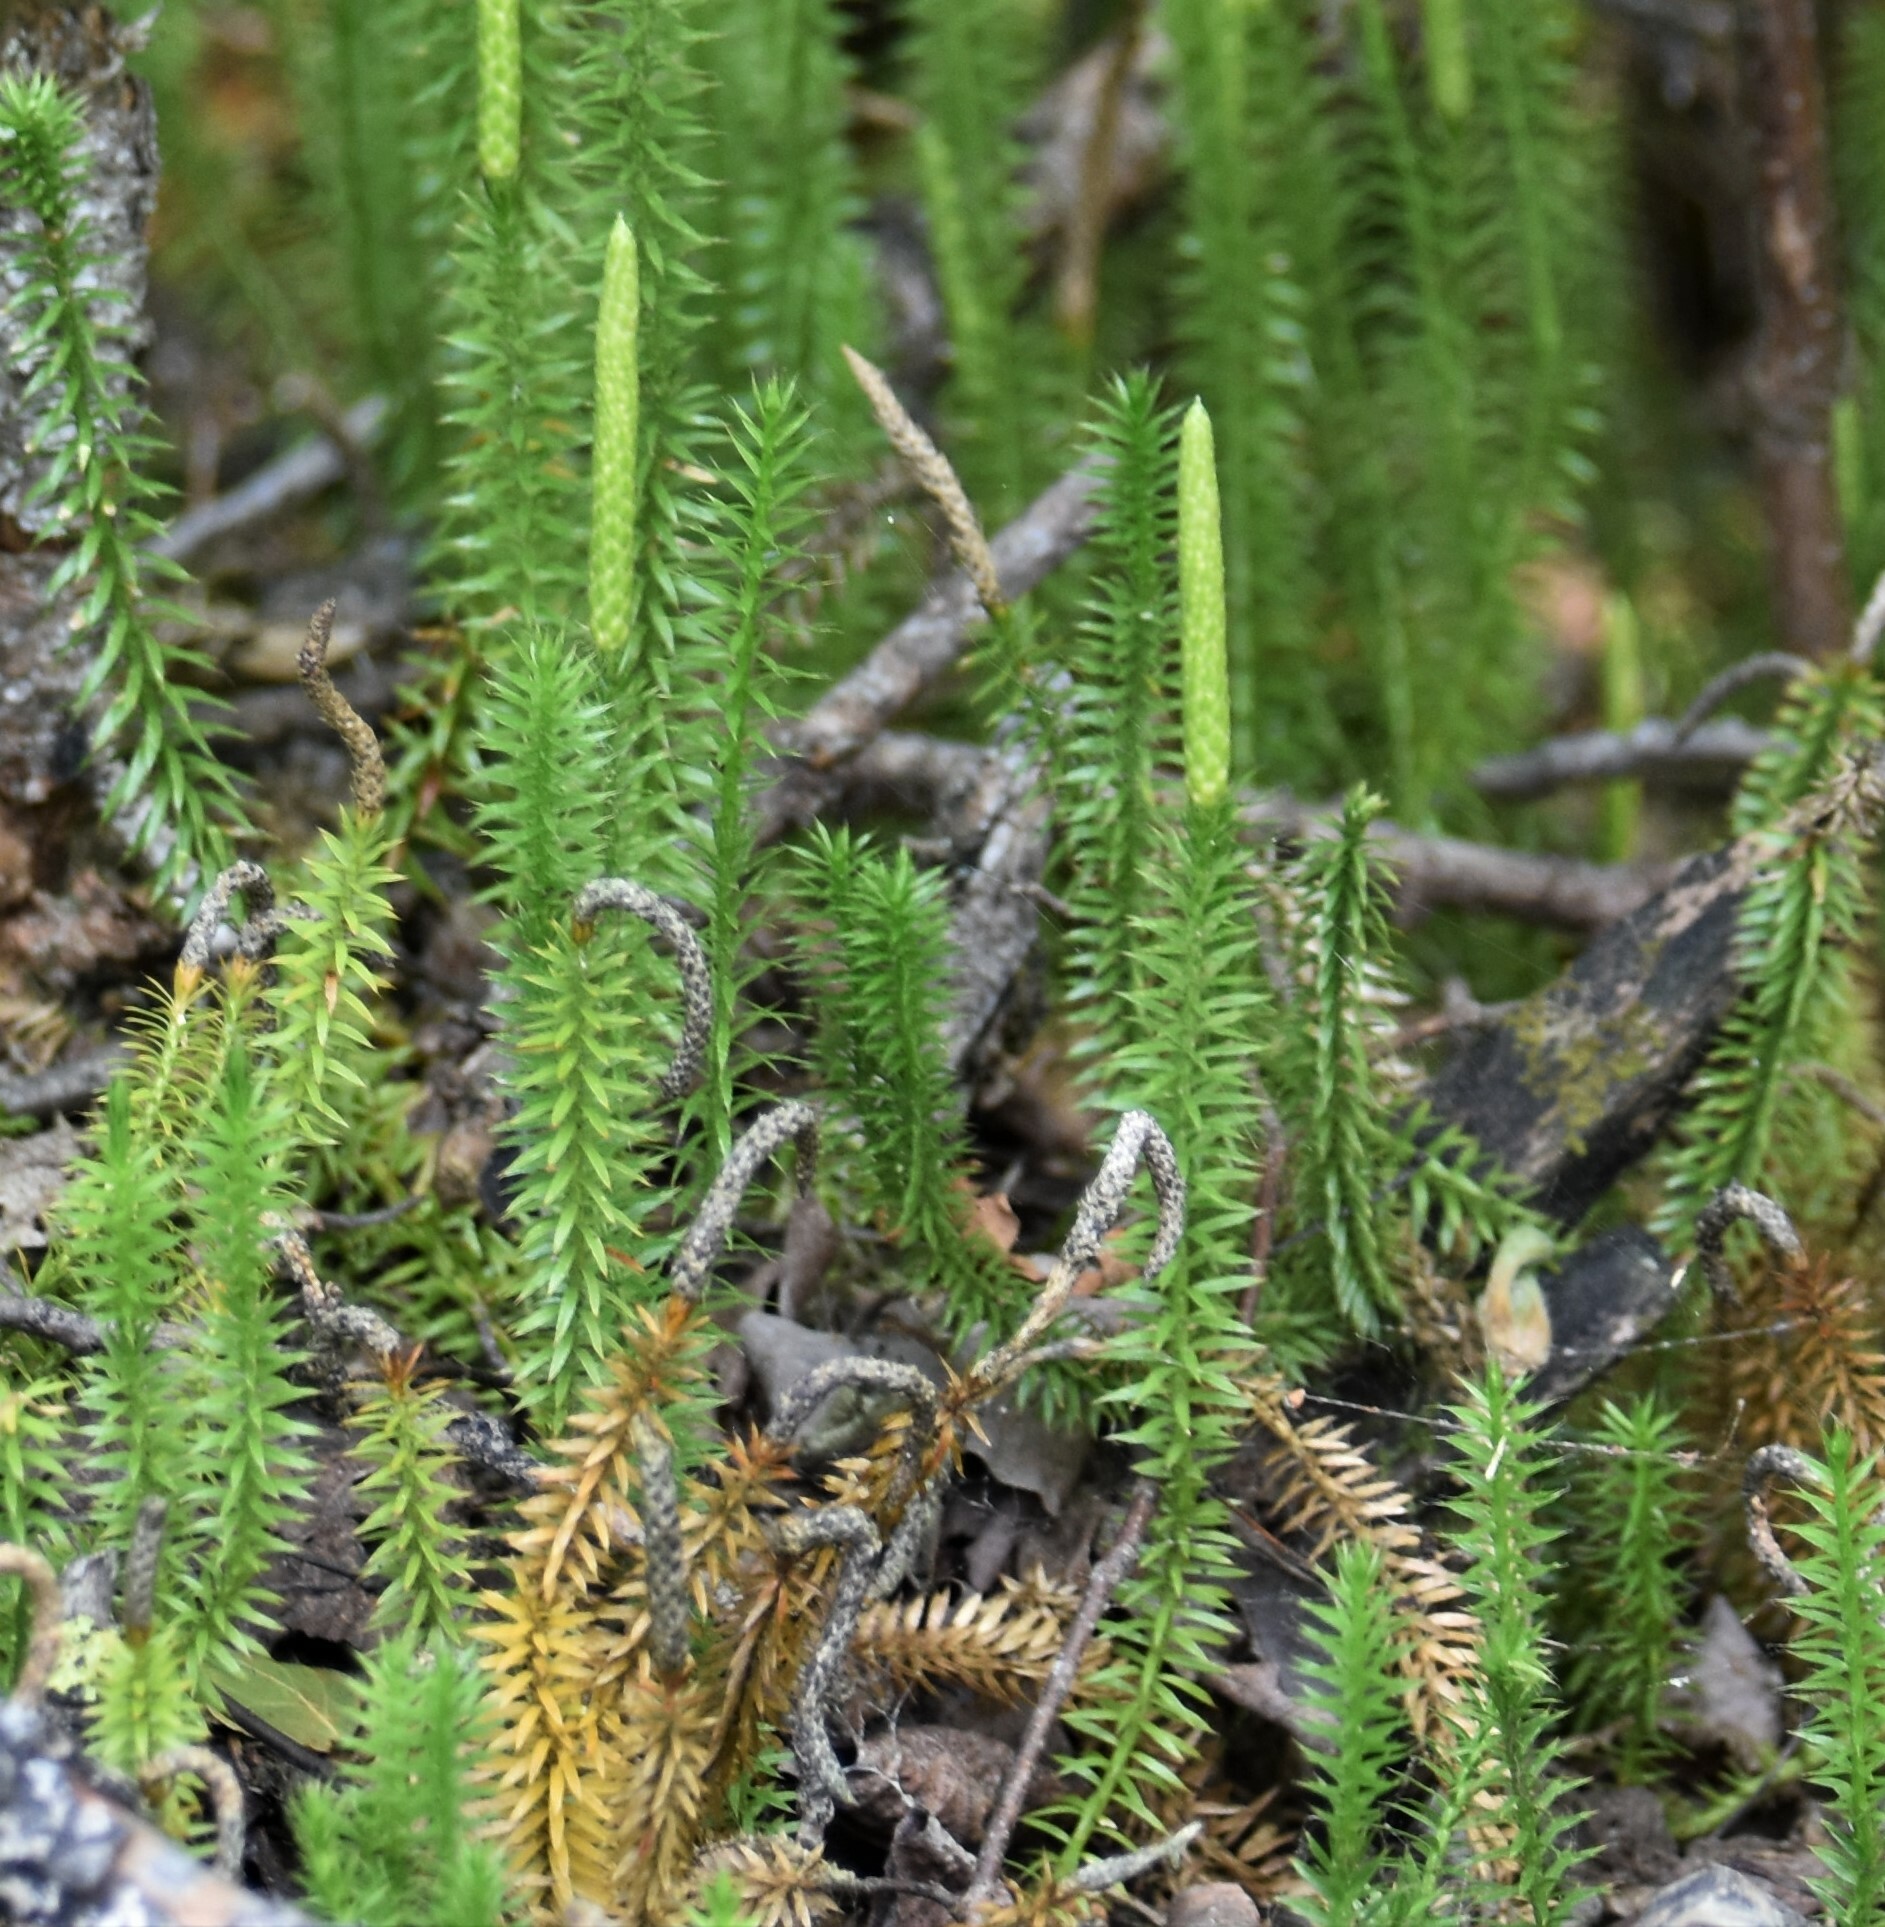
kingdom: Plantae
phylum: Tracheophyta
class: Lycopodiopsida
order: Lycopodiales
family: Lycopodiaceae
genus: Spinulum
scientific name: Spinulum annotinum
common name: Interrupted club-moss
